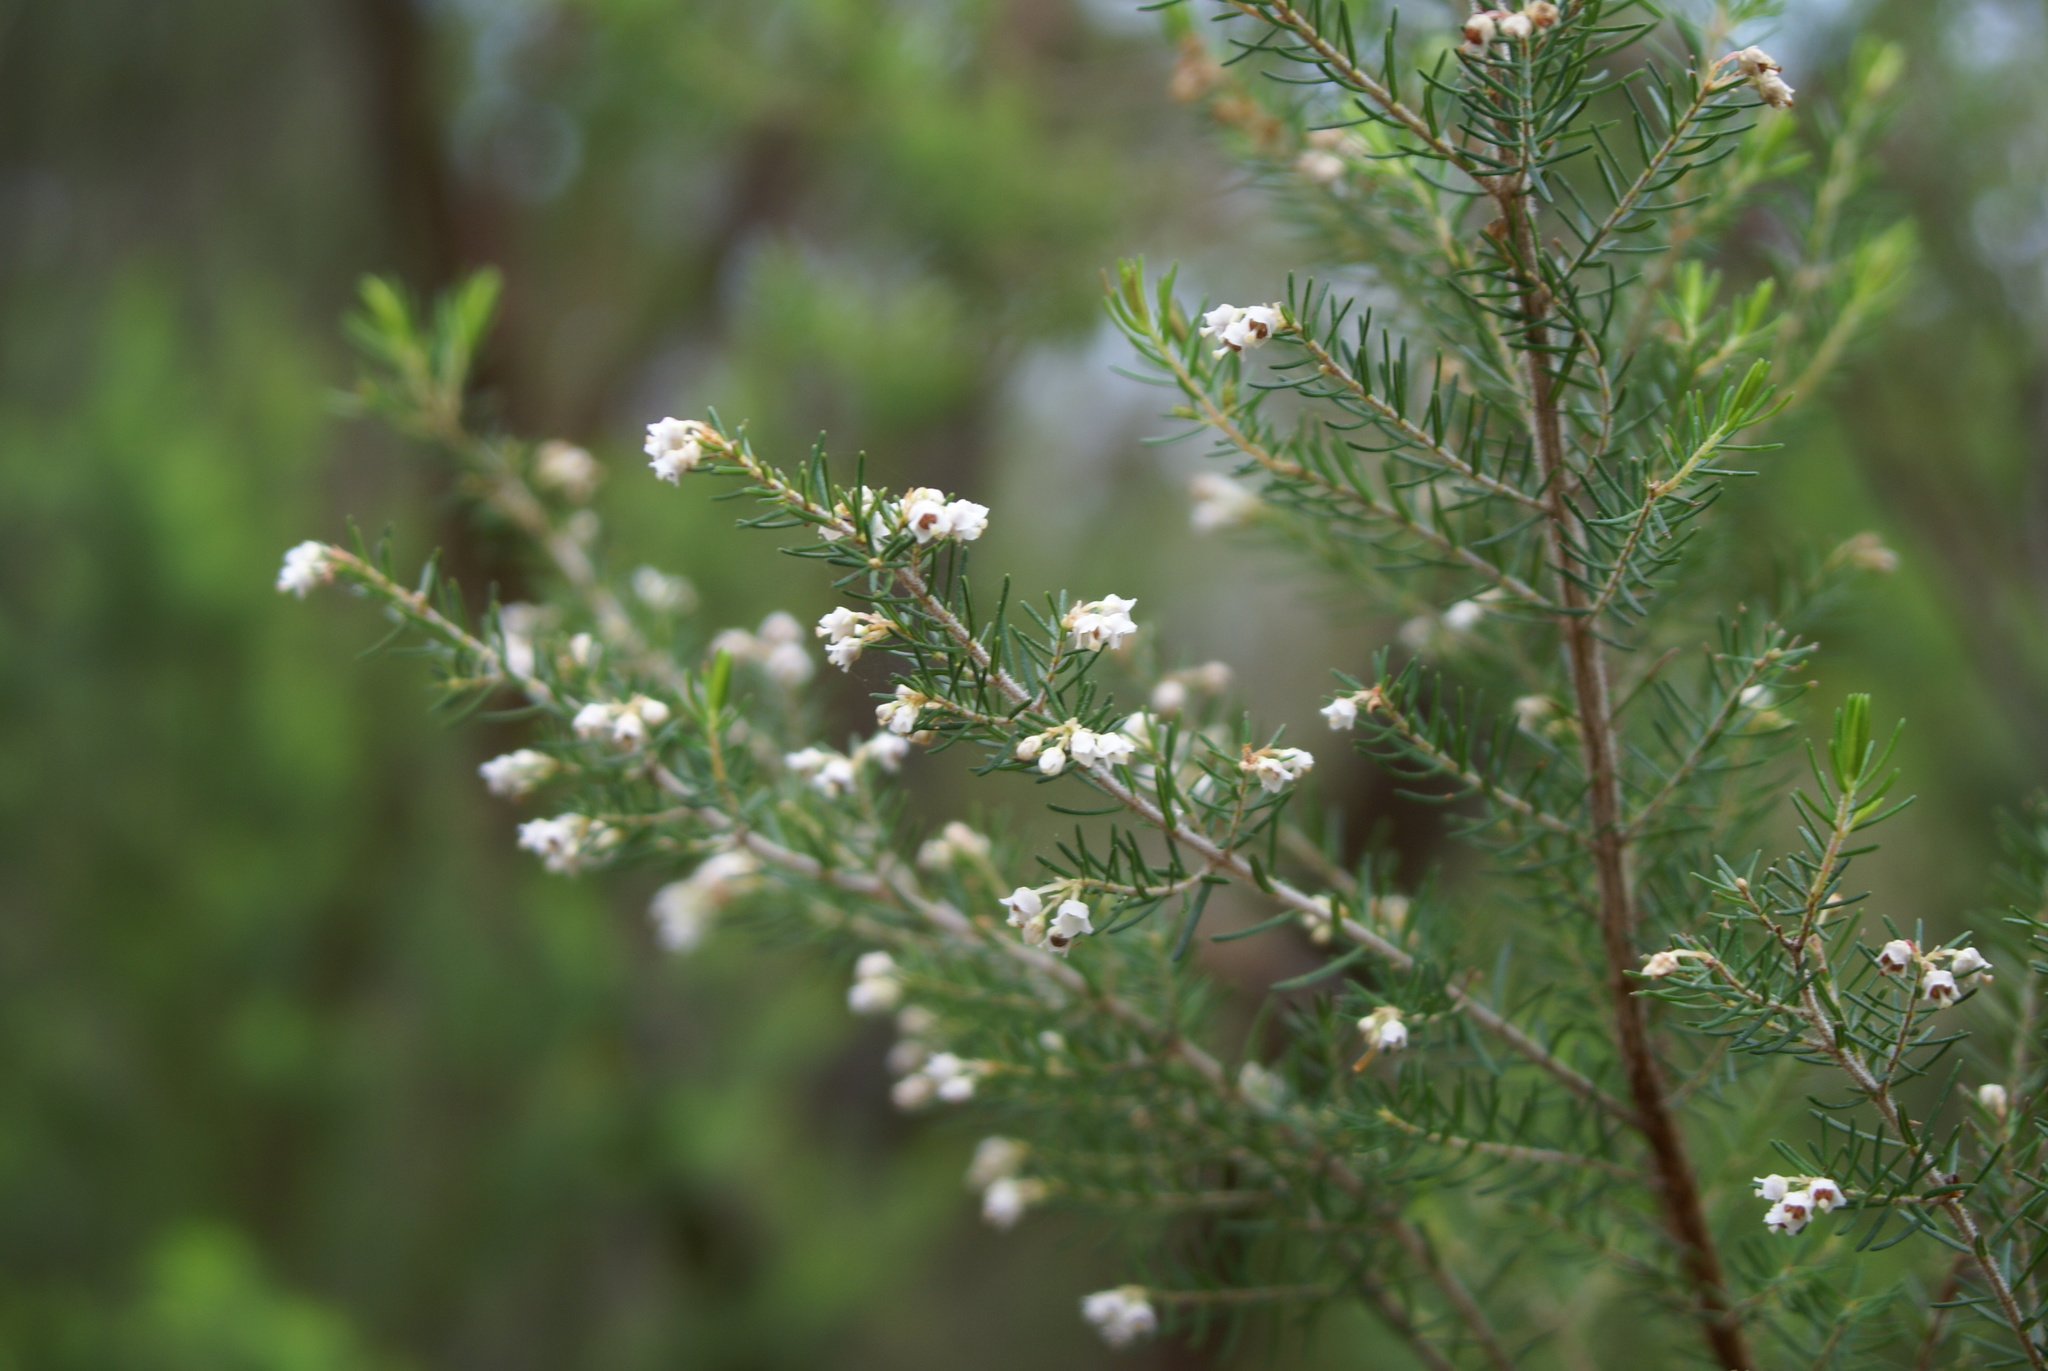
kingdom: Plantae
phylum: Tracheophyta
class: Magnoliopsida
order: Ericales
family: Ericaceae
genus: Erica
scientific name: Erica canariensis
